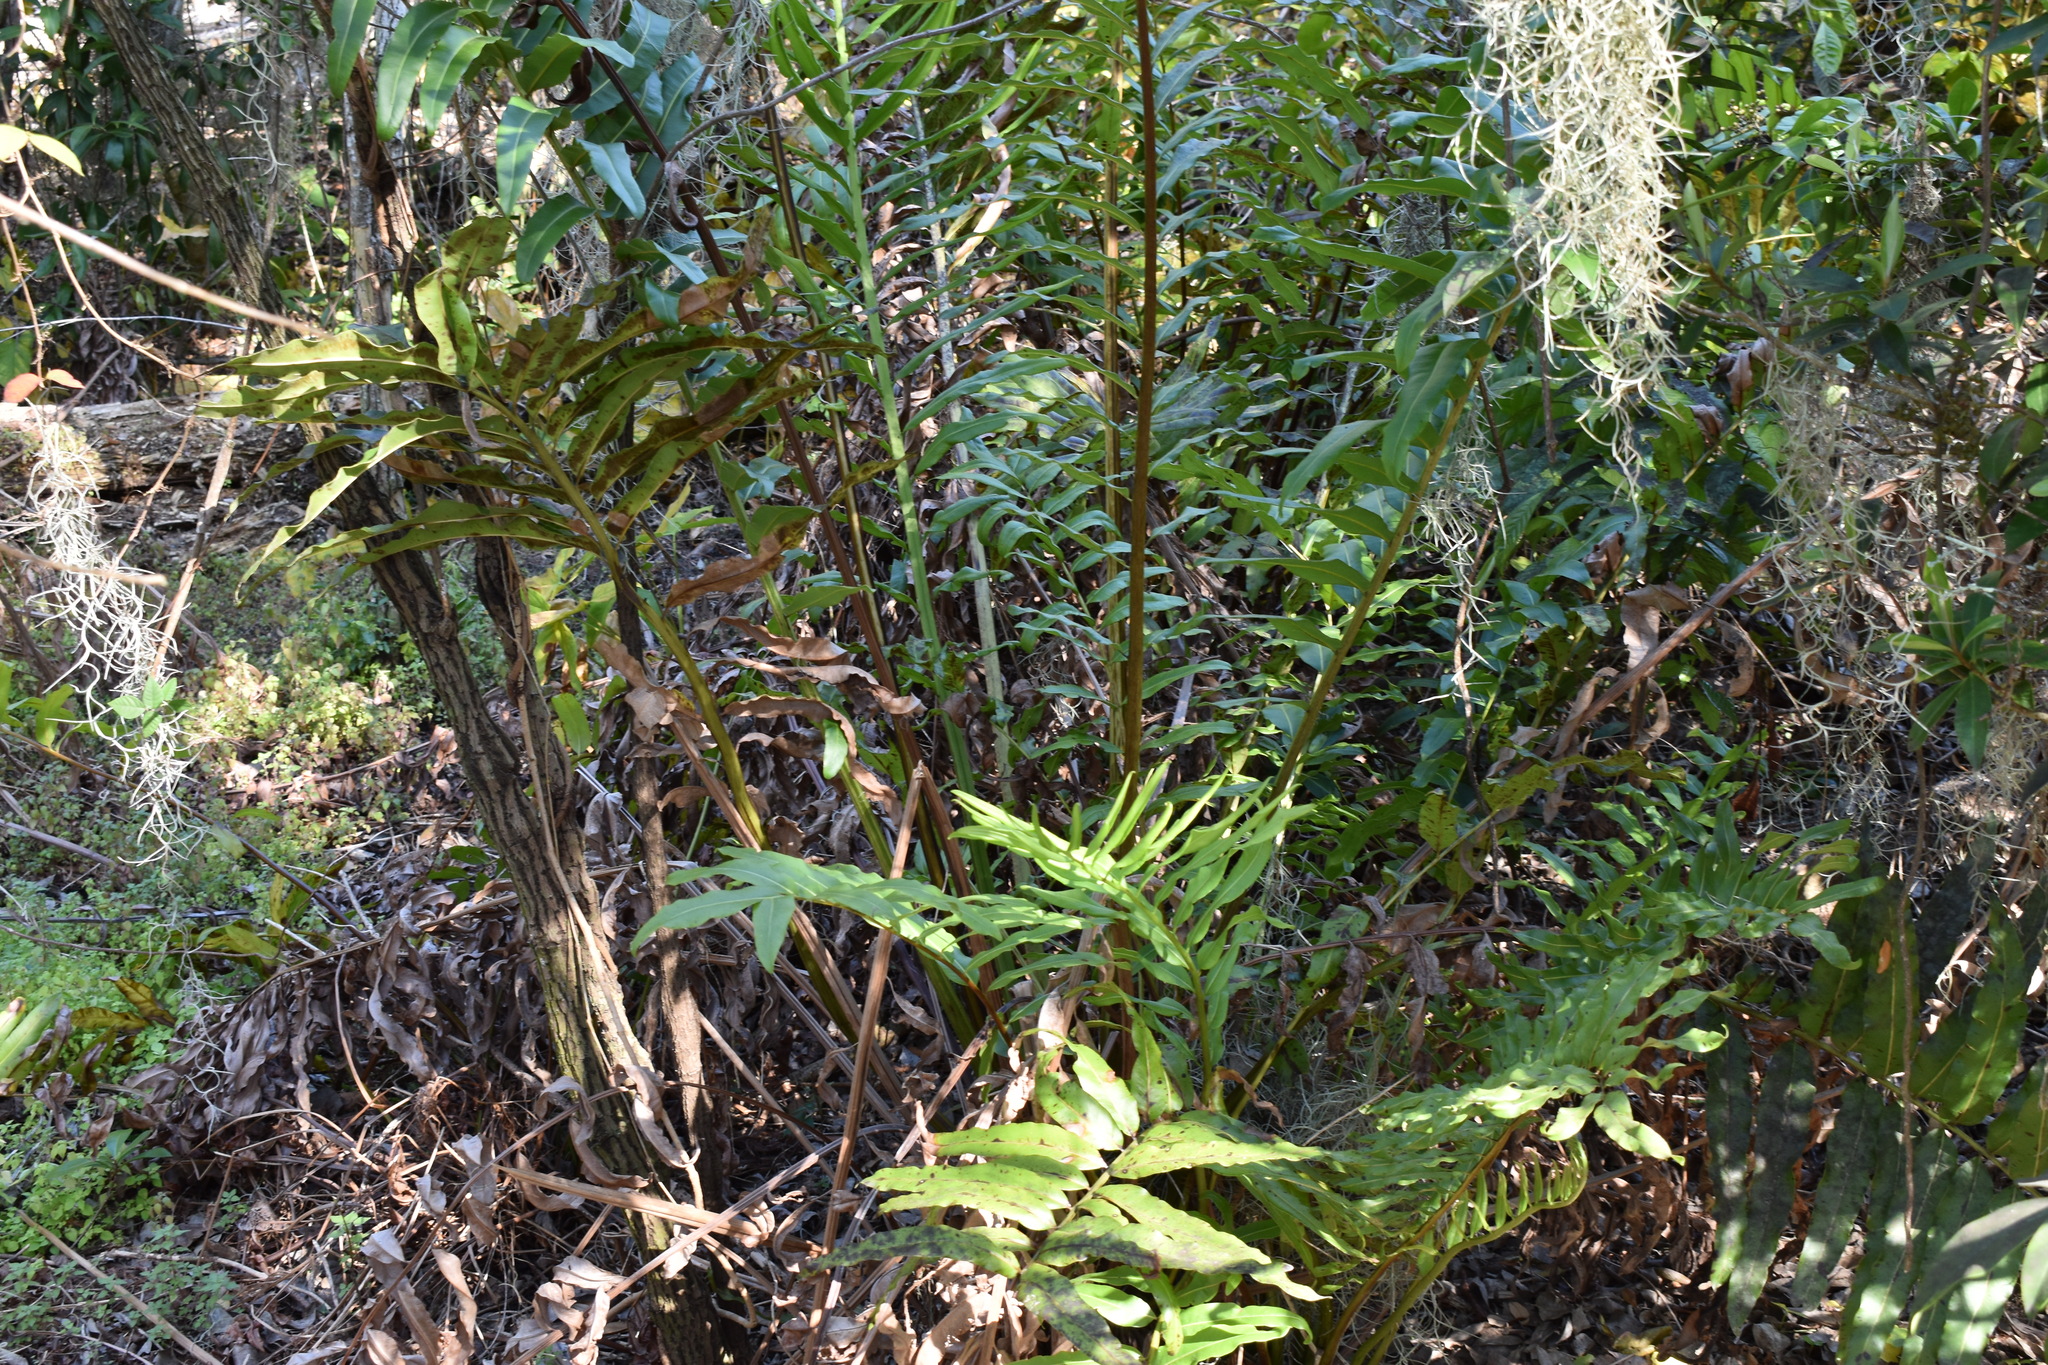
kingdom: Plantae
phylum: Tracheophyta
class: Polypodiopsida
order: Polypodiales
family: Pteridaceae
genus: Acrostichum
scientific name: Acrostichum danaeifolium
